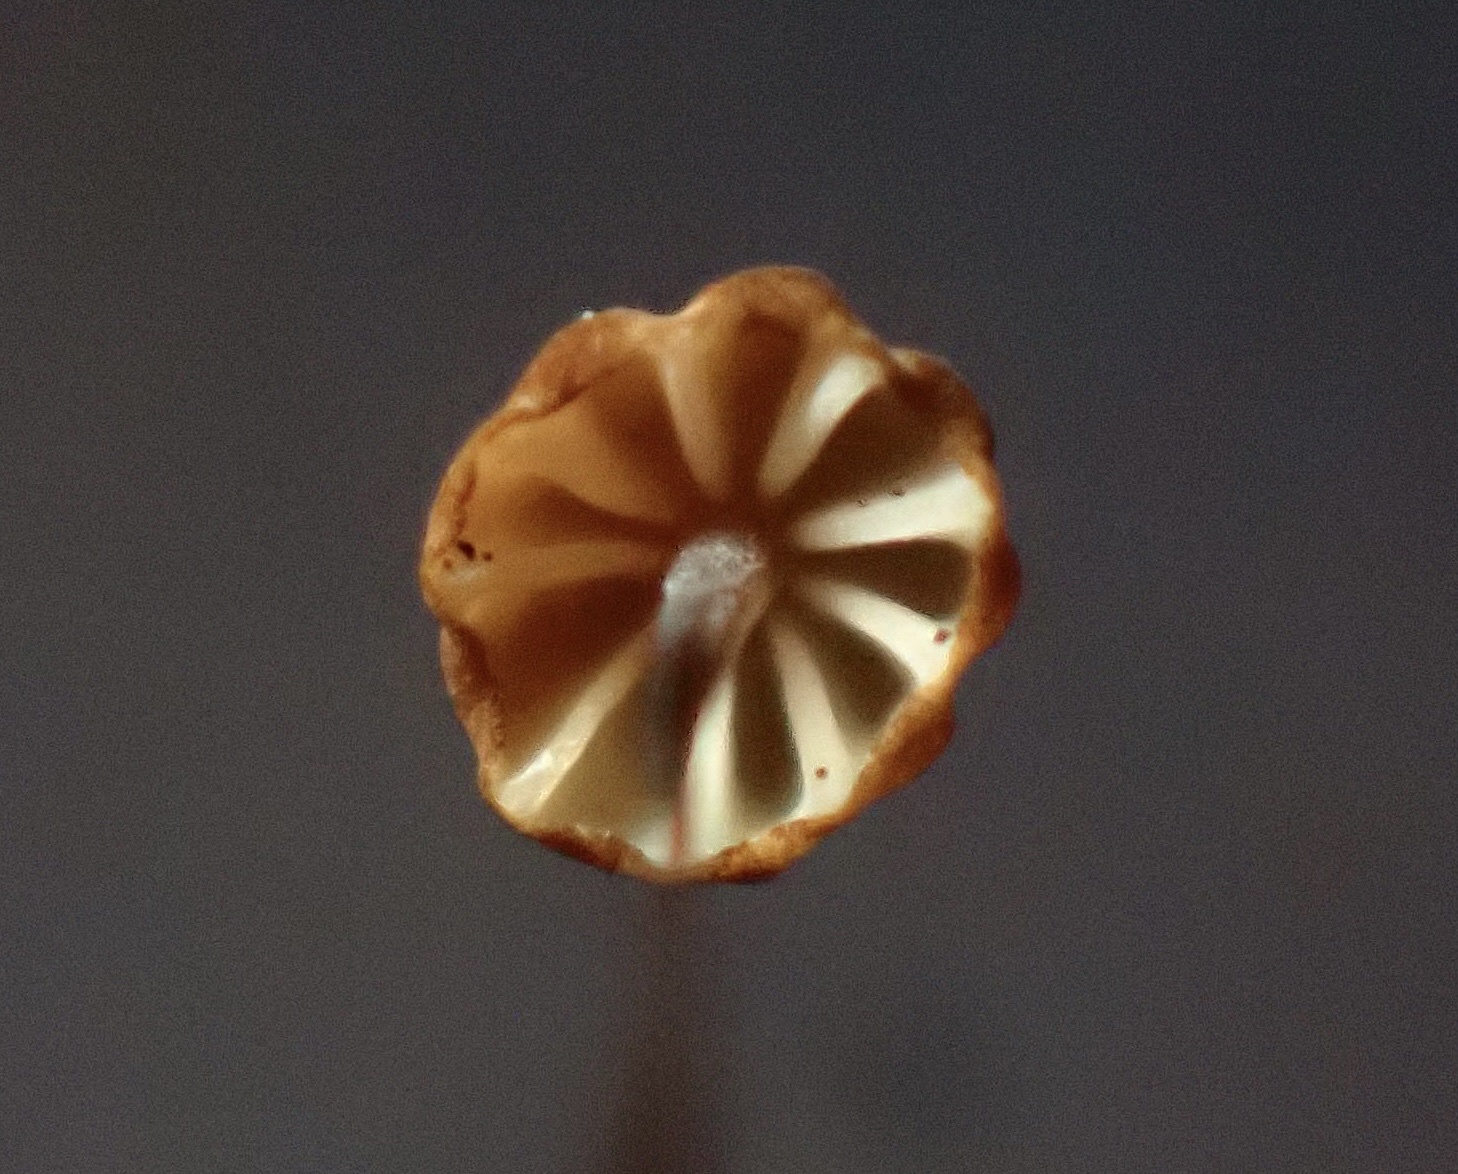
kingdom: Fungi
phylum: Basidiomycota
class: Agaricomycetes
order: Agaricales
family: Physalacriaceae
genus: Cryptomarasmius
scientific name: Cryptomarasmius corbariensis
